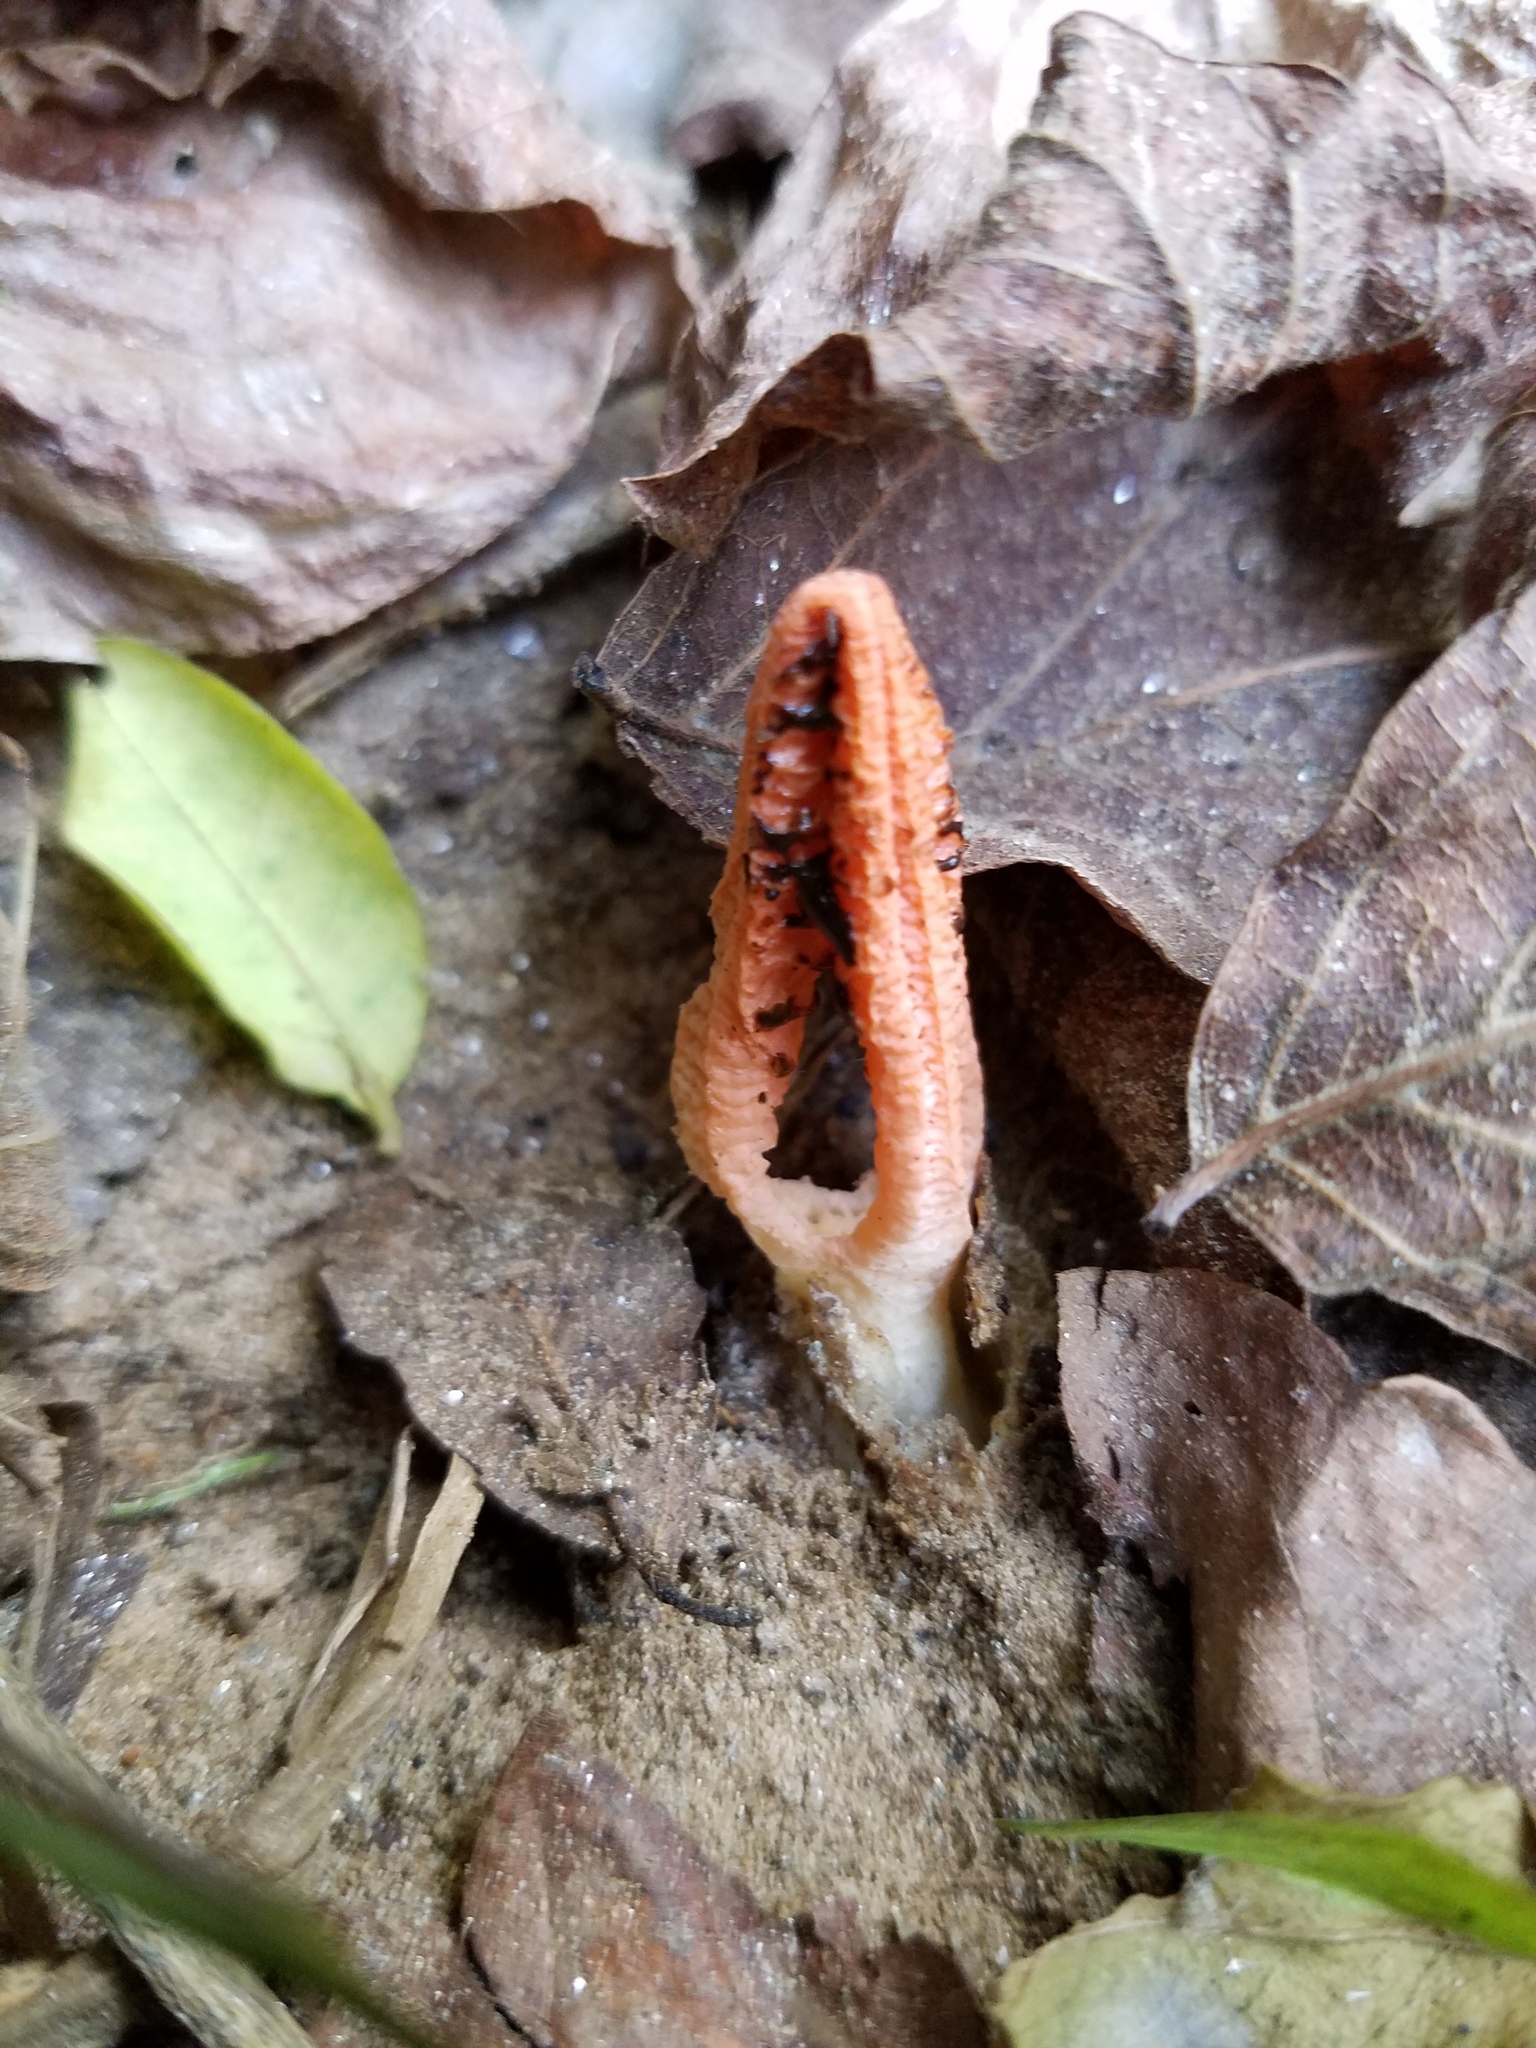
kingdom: Fungi
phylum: Basidiomycota
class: Agaricomycetes
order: Phallales
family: Phallaceae
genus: Pseudocolus
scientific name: Pseudocolus fusiformis
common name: Stinky squid
